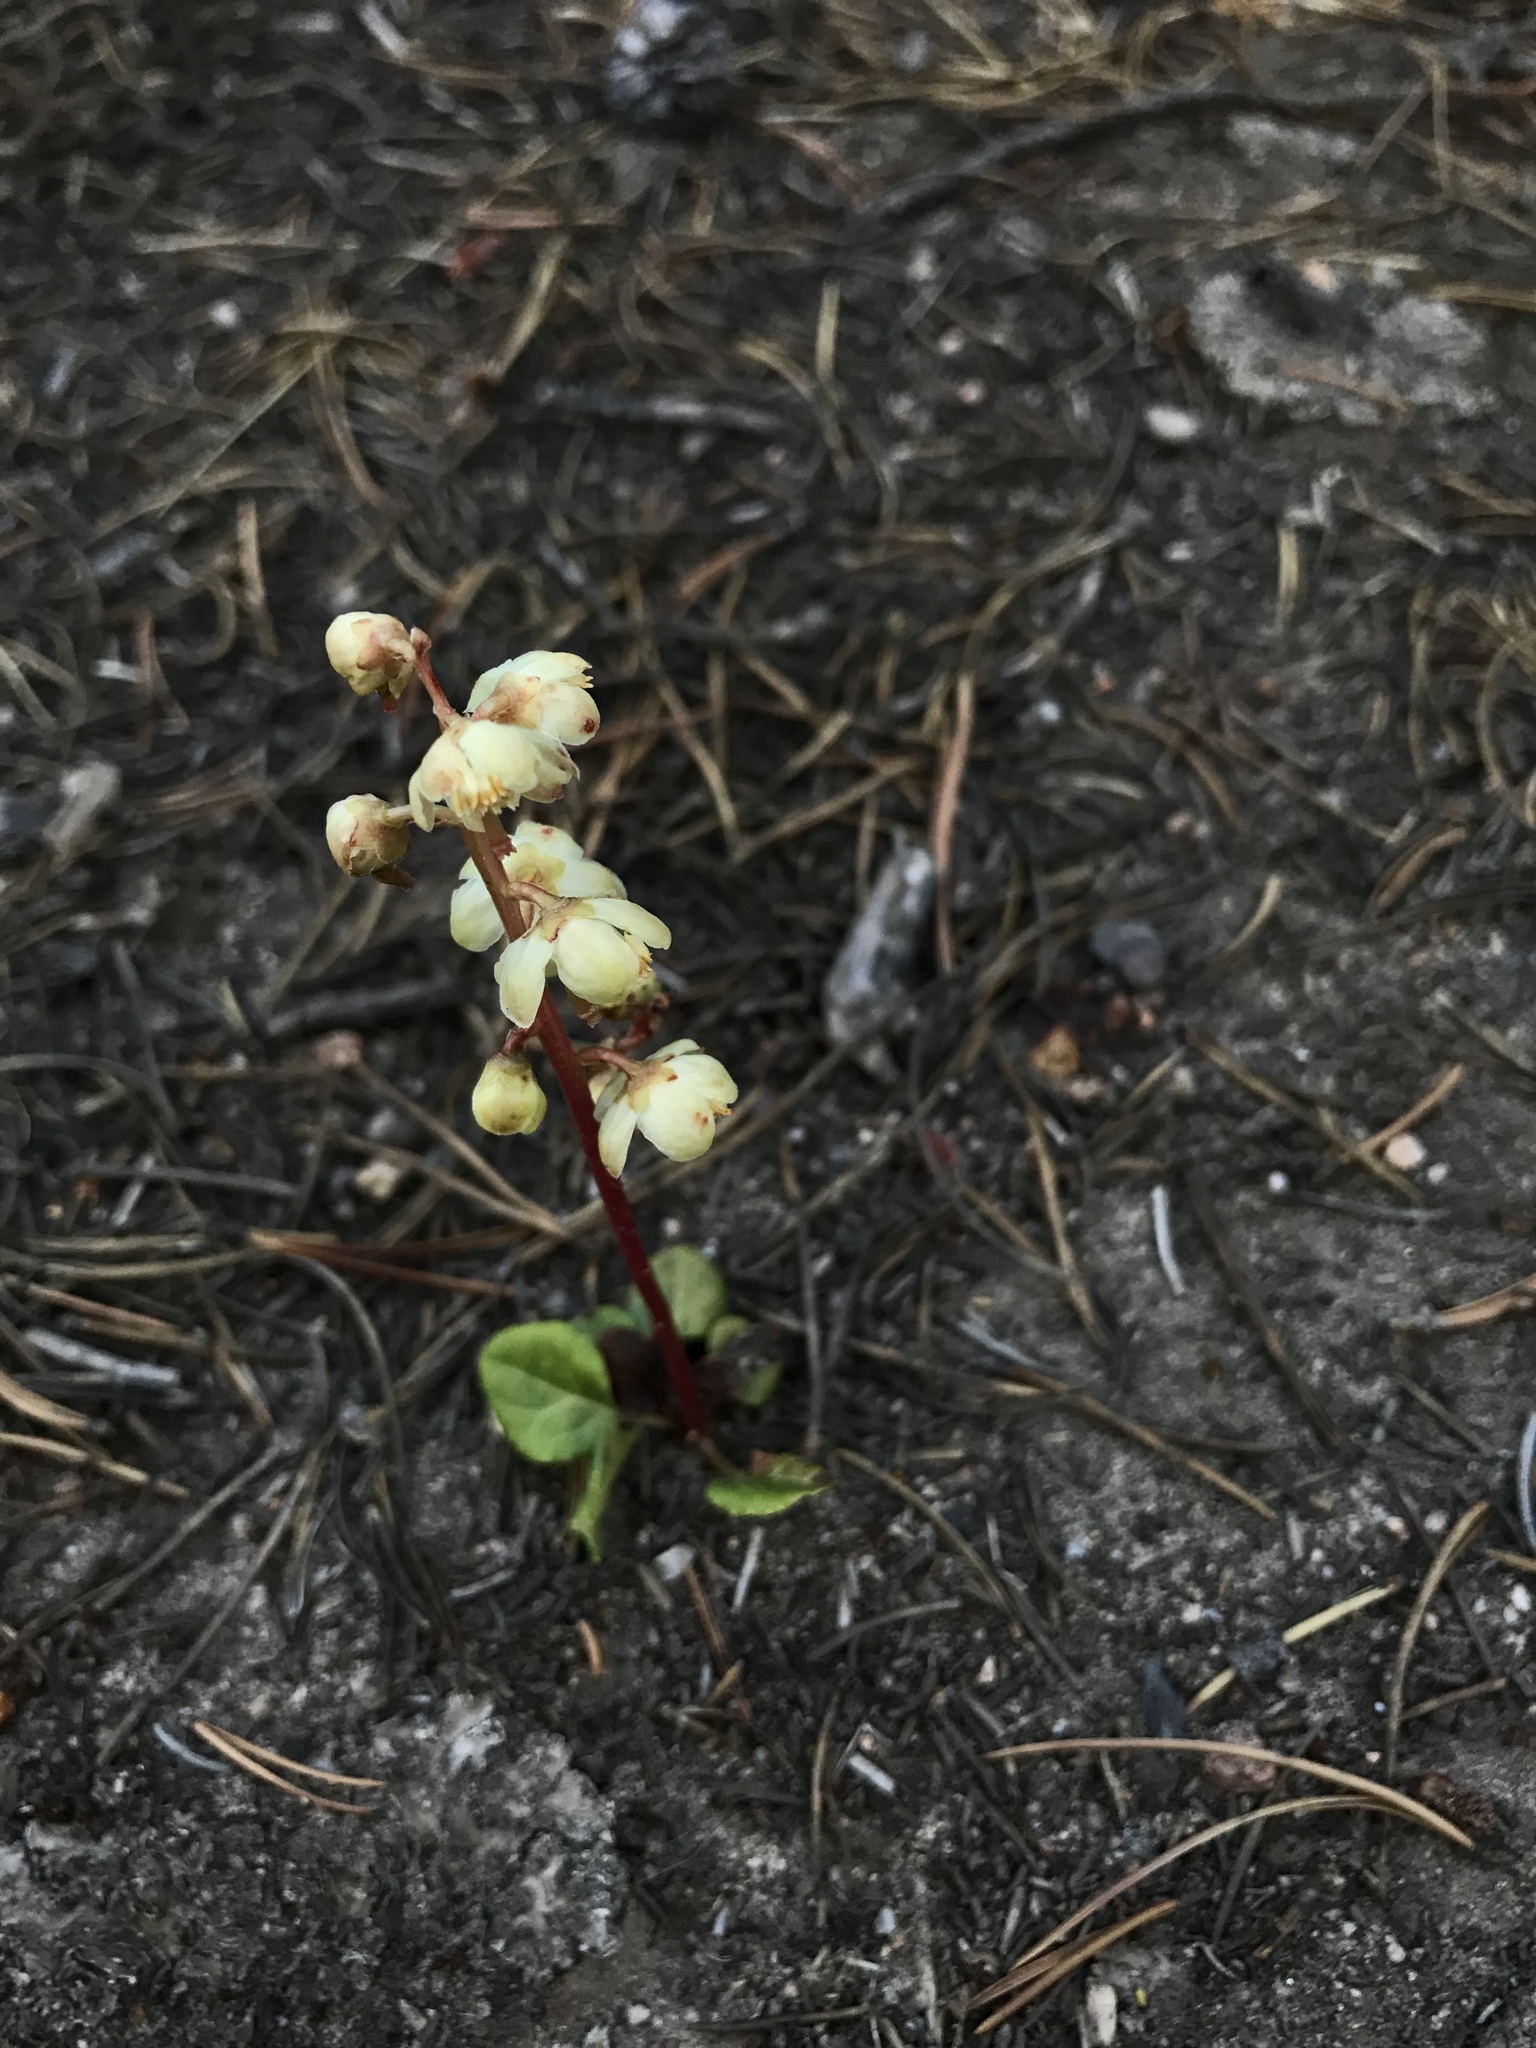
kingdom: Plantae
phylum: Tracheophyta
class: Magnoliopsida
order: Ericales
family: Ericaceae
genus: Pyrola
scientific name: Pyrola chlorantha
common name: Green wintergreen
